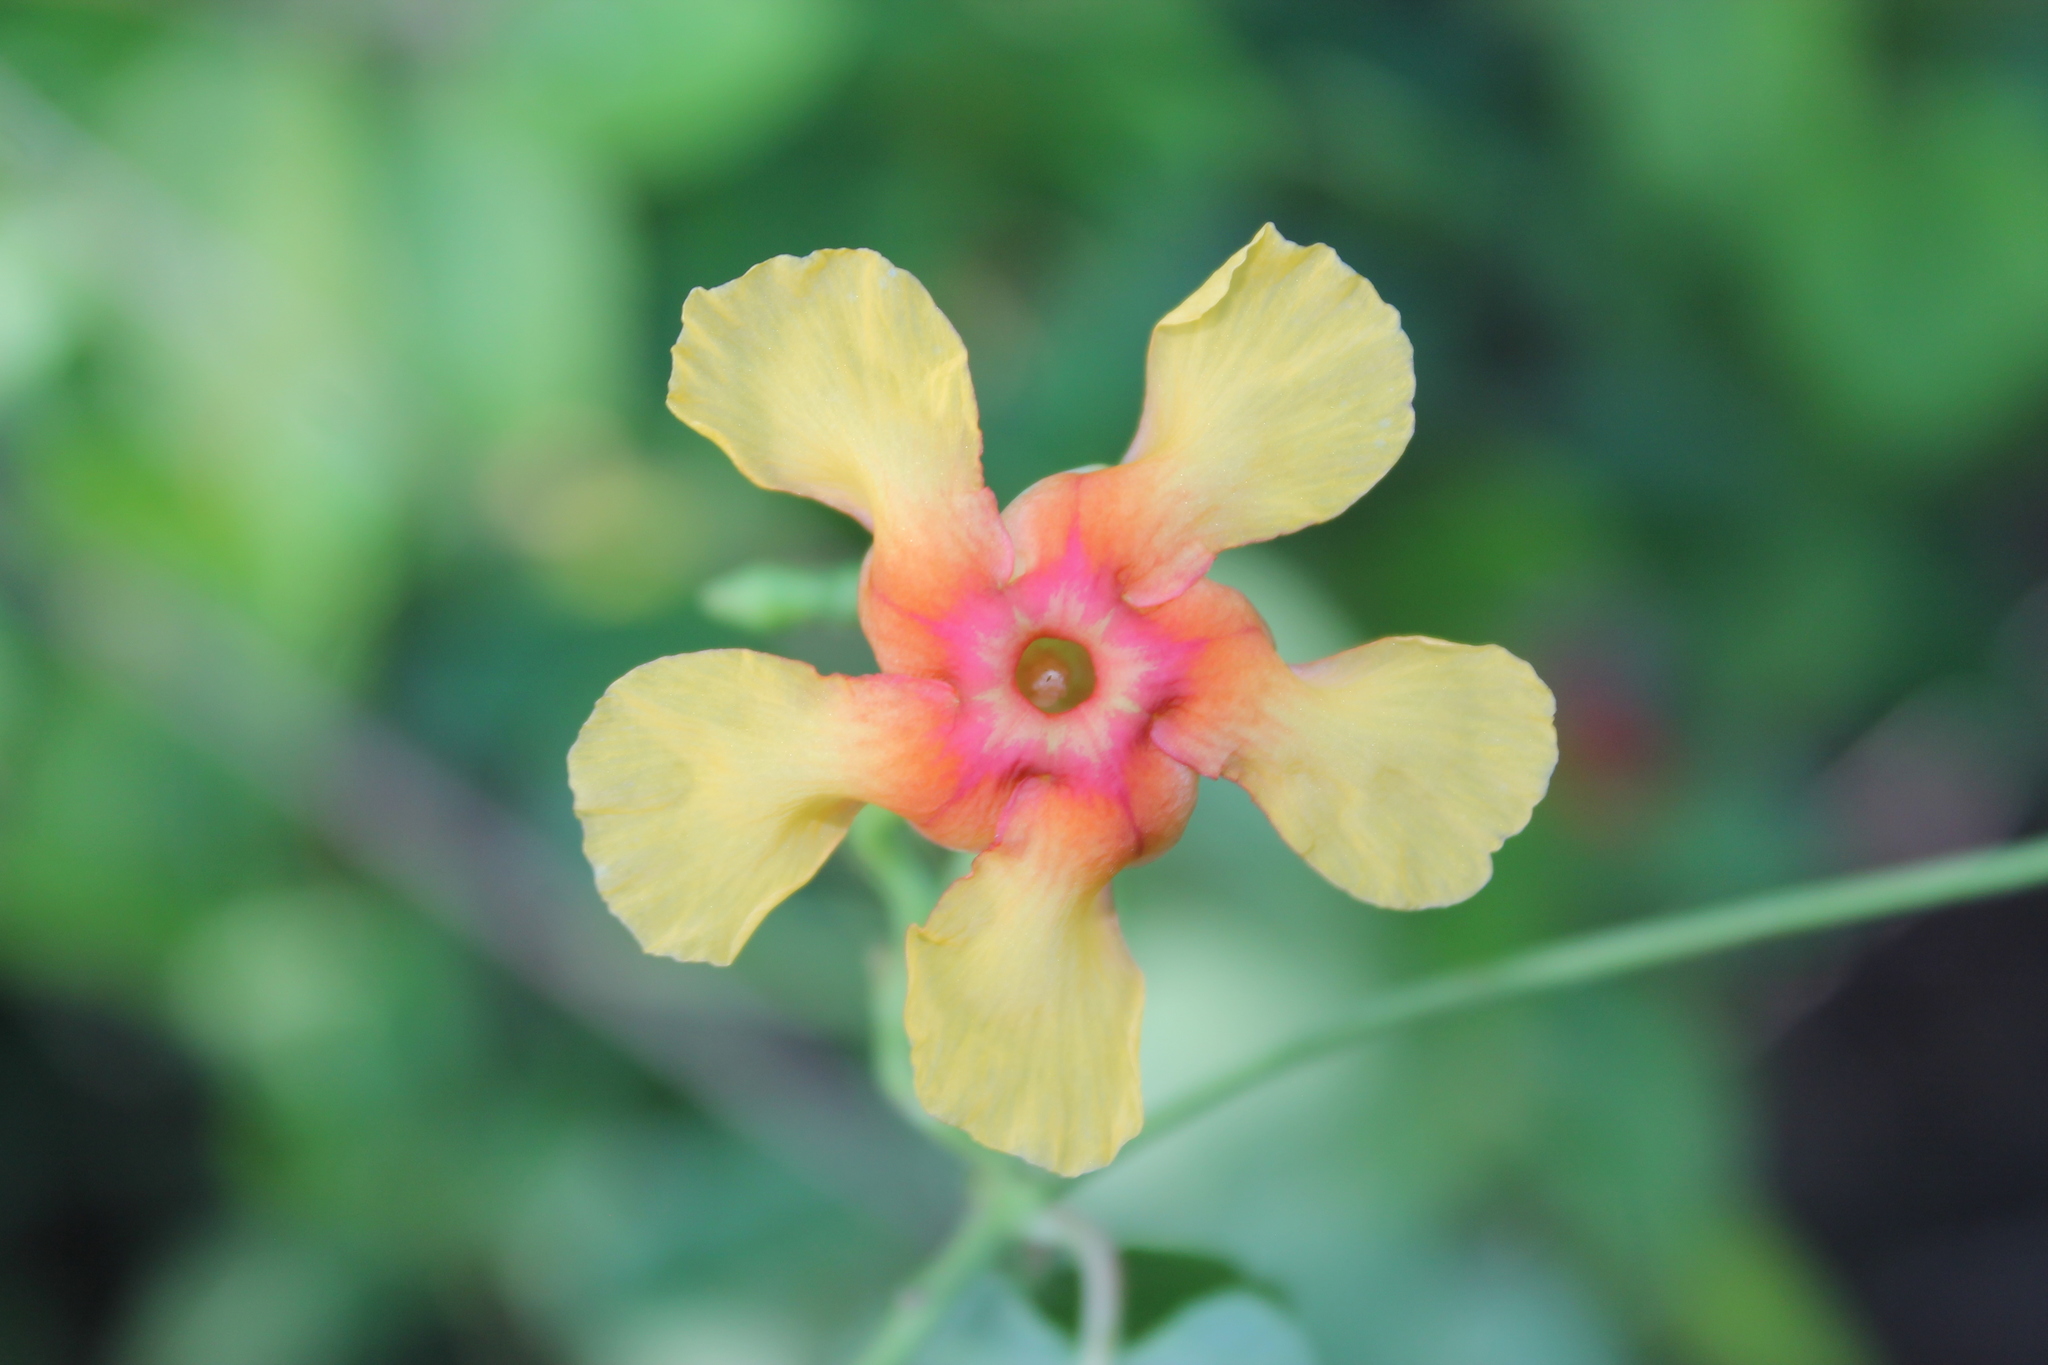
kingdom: Plantae
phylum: Tracheophyta
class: Magnoliopsida
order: Gentianales
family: Apocynaceae
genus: Mandevilla
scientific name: Mandevilla subsagittata
